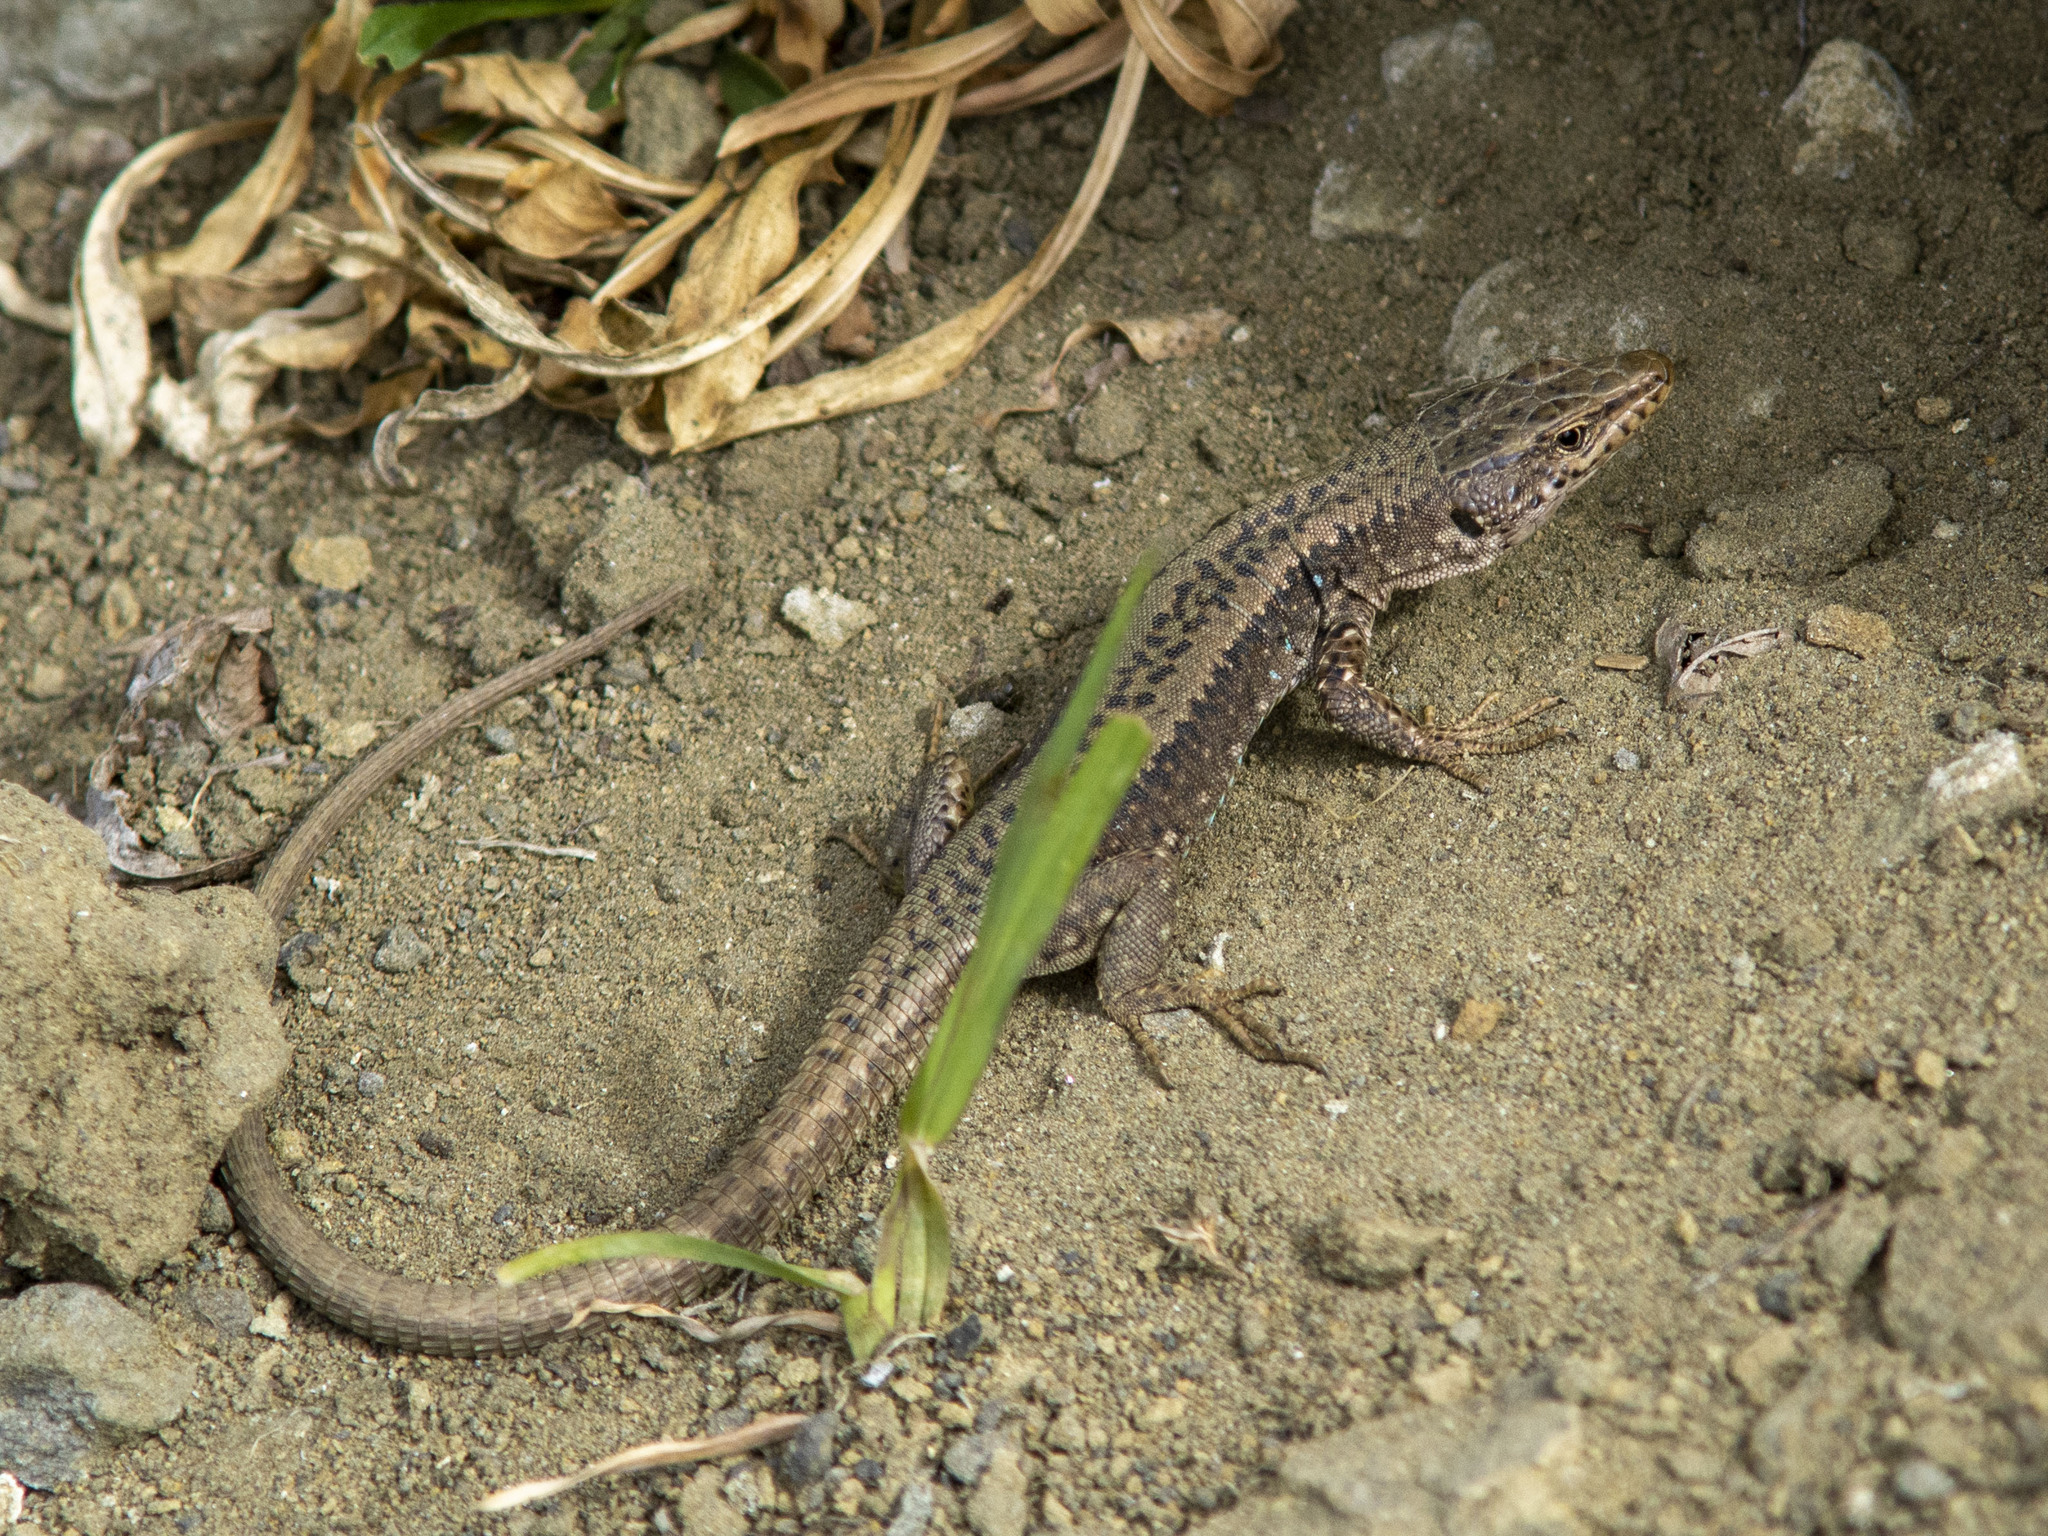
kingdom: Animalia
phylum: Chordata
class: Squamata
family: Lacertidae
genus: Darevskia
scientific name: Darevskia saxicola
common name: Rock lizard
